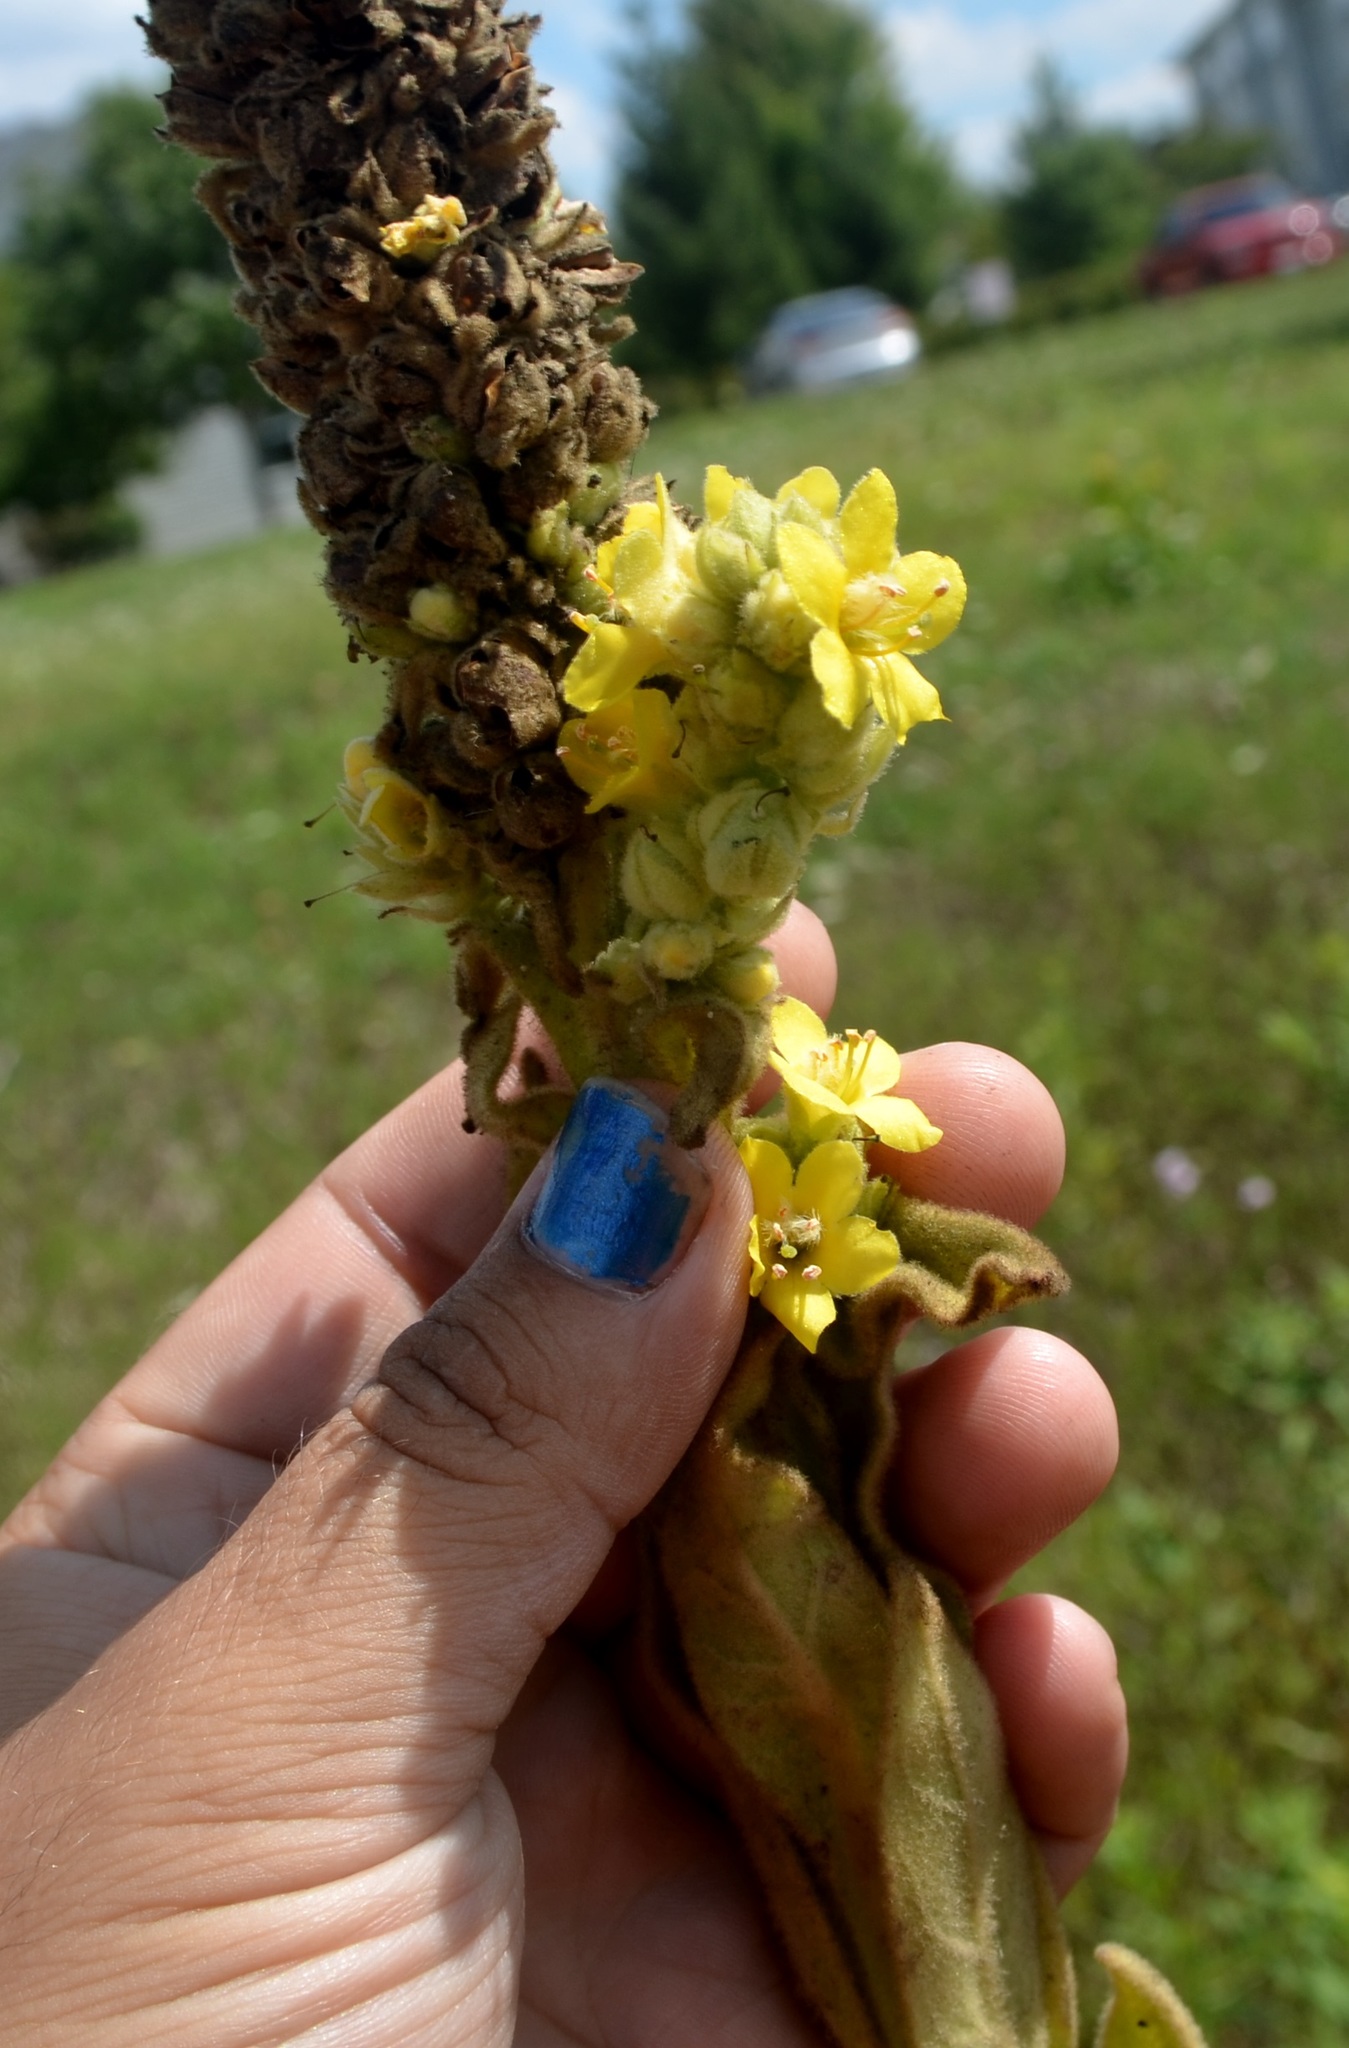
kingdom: Plantae
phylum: Tracheophyta
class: Magnoliopsida
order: Lamiales
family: Scrophulariaceae
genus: Verbascum
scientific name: Verbascum thapsus
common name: Common mullein
